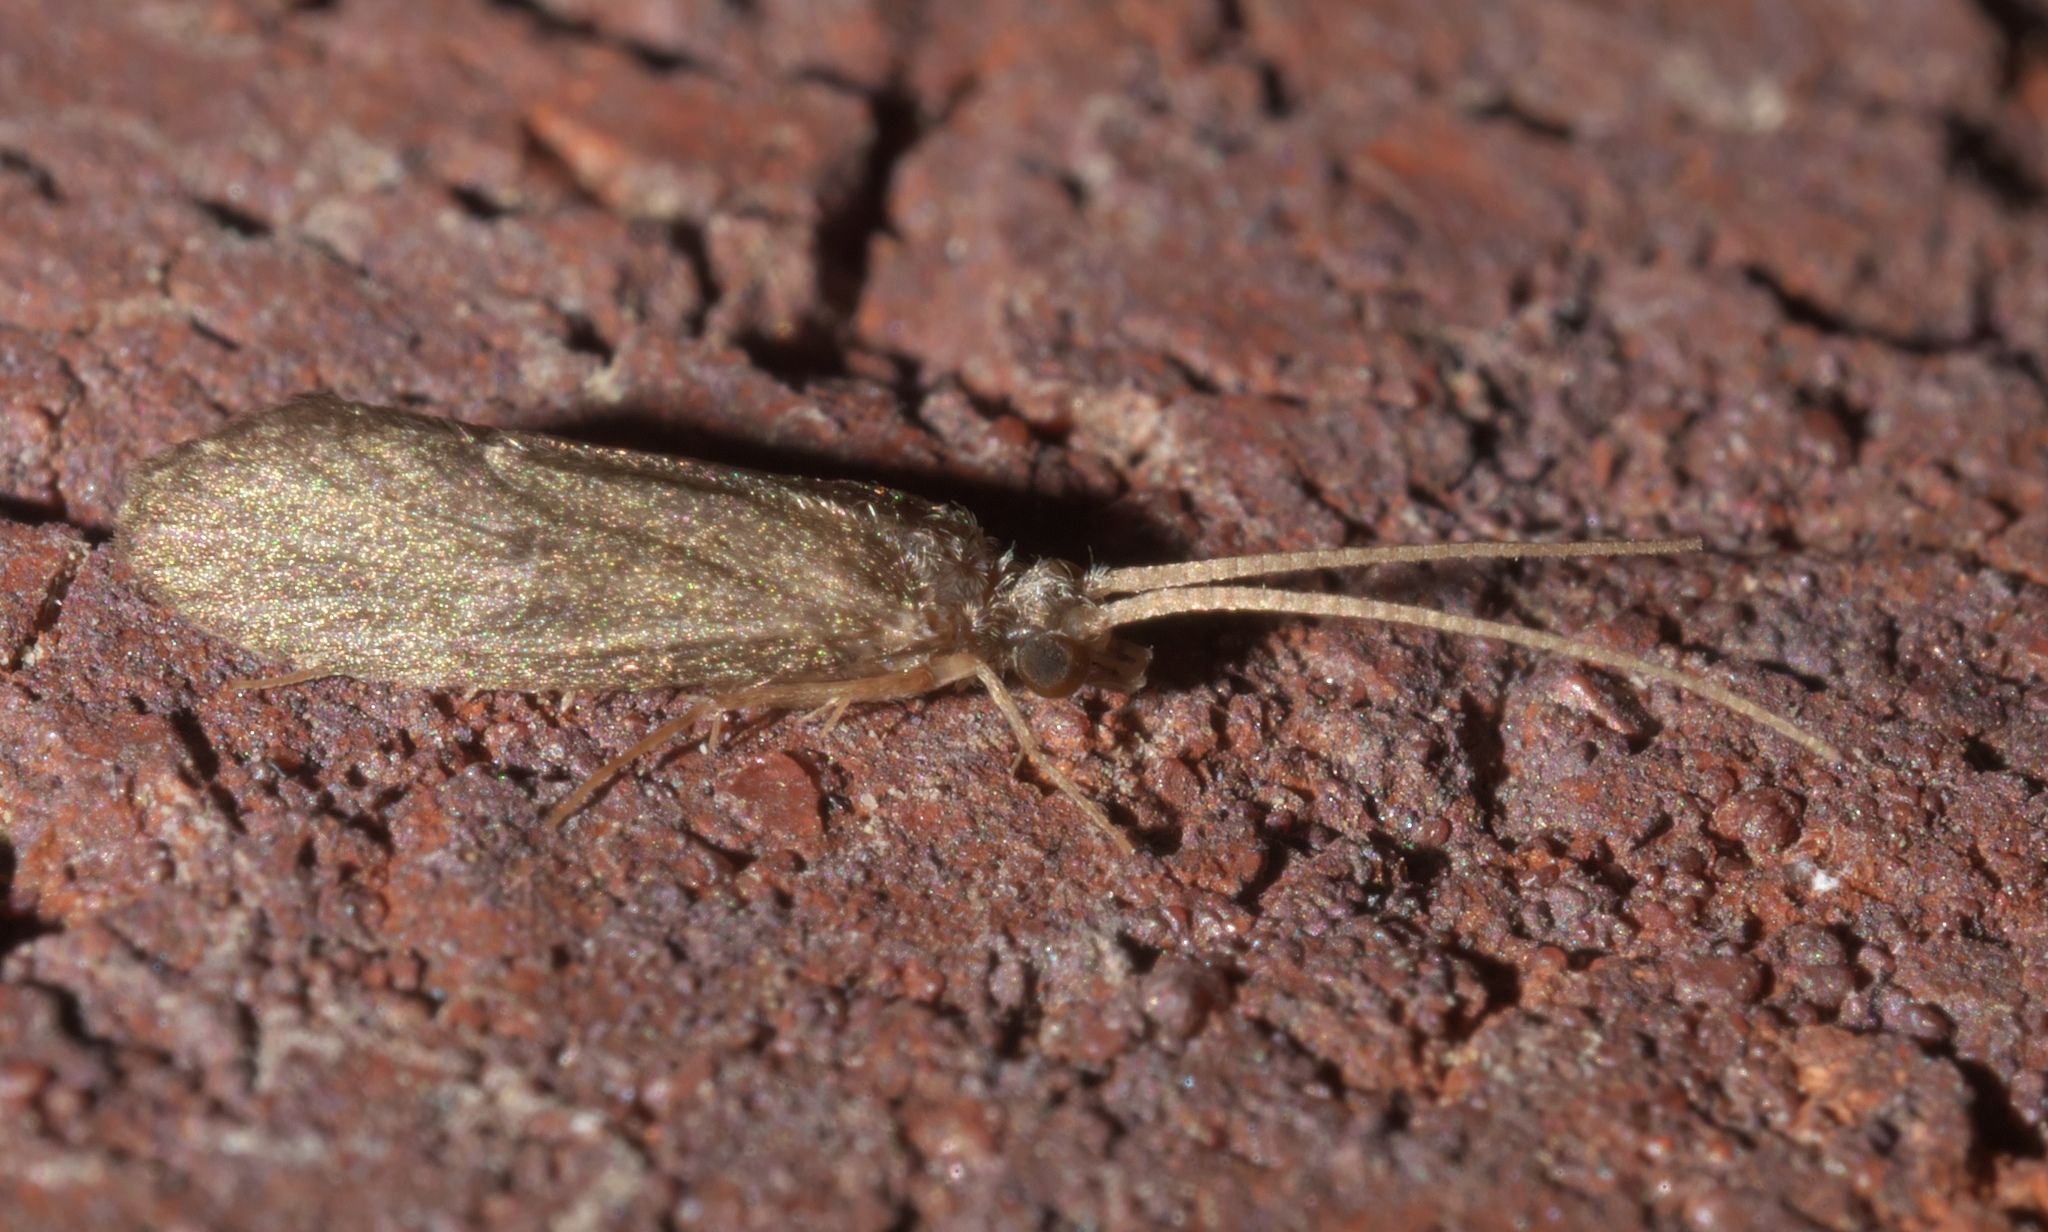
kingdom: Animalia
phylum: Arthropoda
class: Insecta
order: Trichoptera
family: Polycentropodidae
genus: Cyrnellus
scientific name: Cyrnellus fraternus
